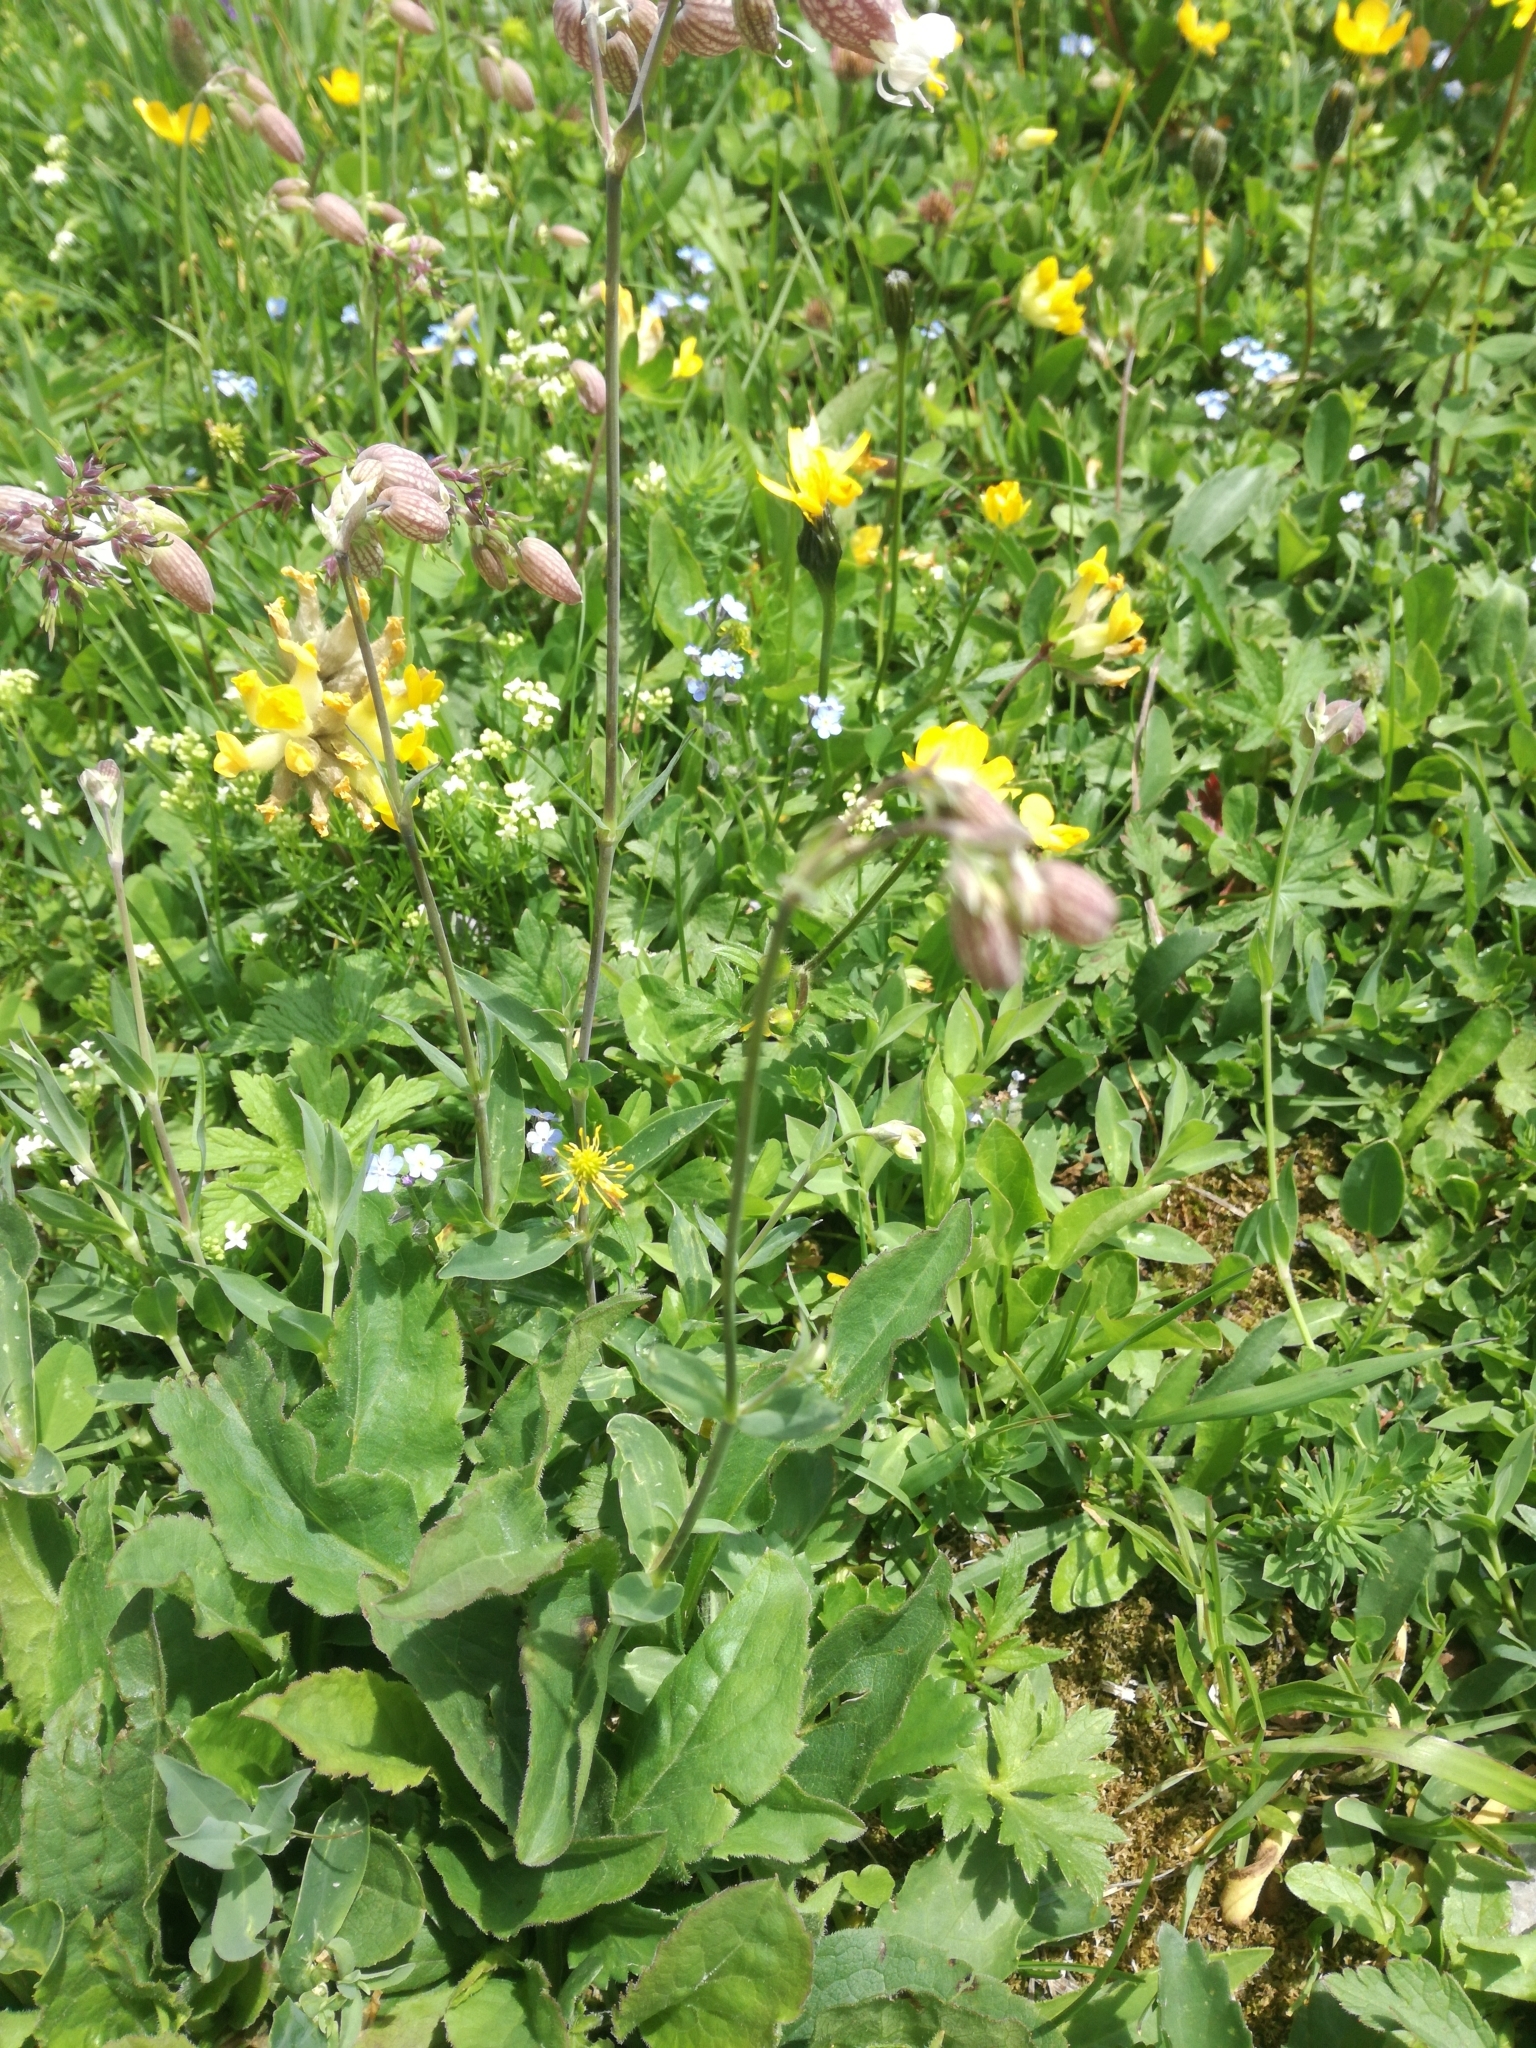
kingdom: Plantae
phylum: Tracheophyta
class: Magnoliopsida
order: Caryophyllales
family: Caryophyllaceae
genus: Silene
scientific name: Silene vulgaris
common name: Bladder campion
